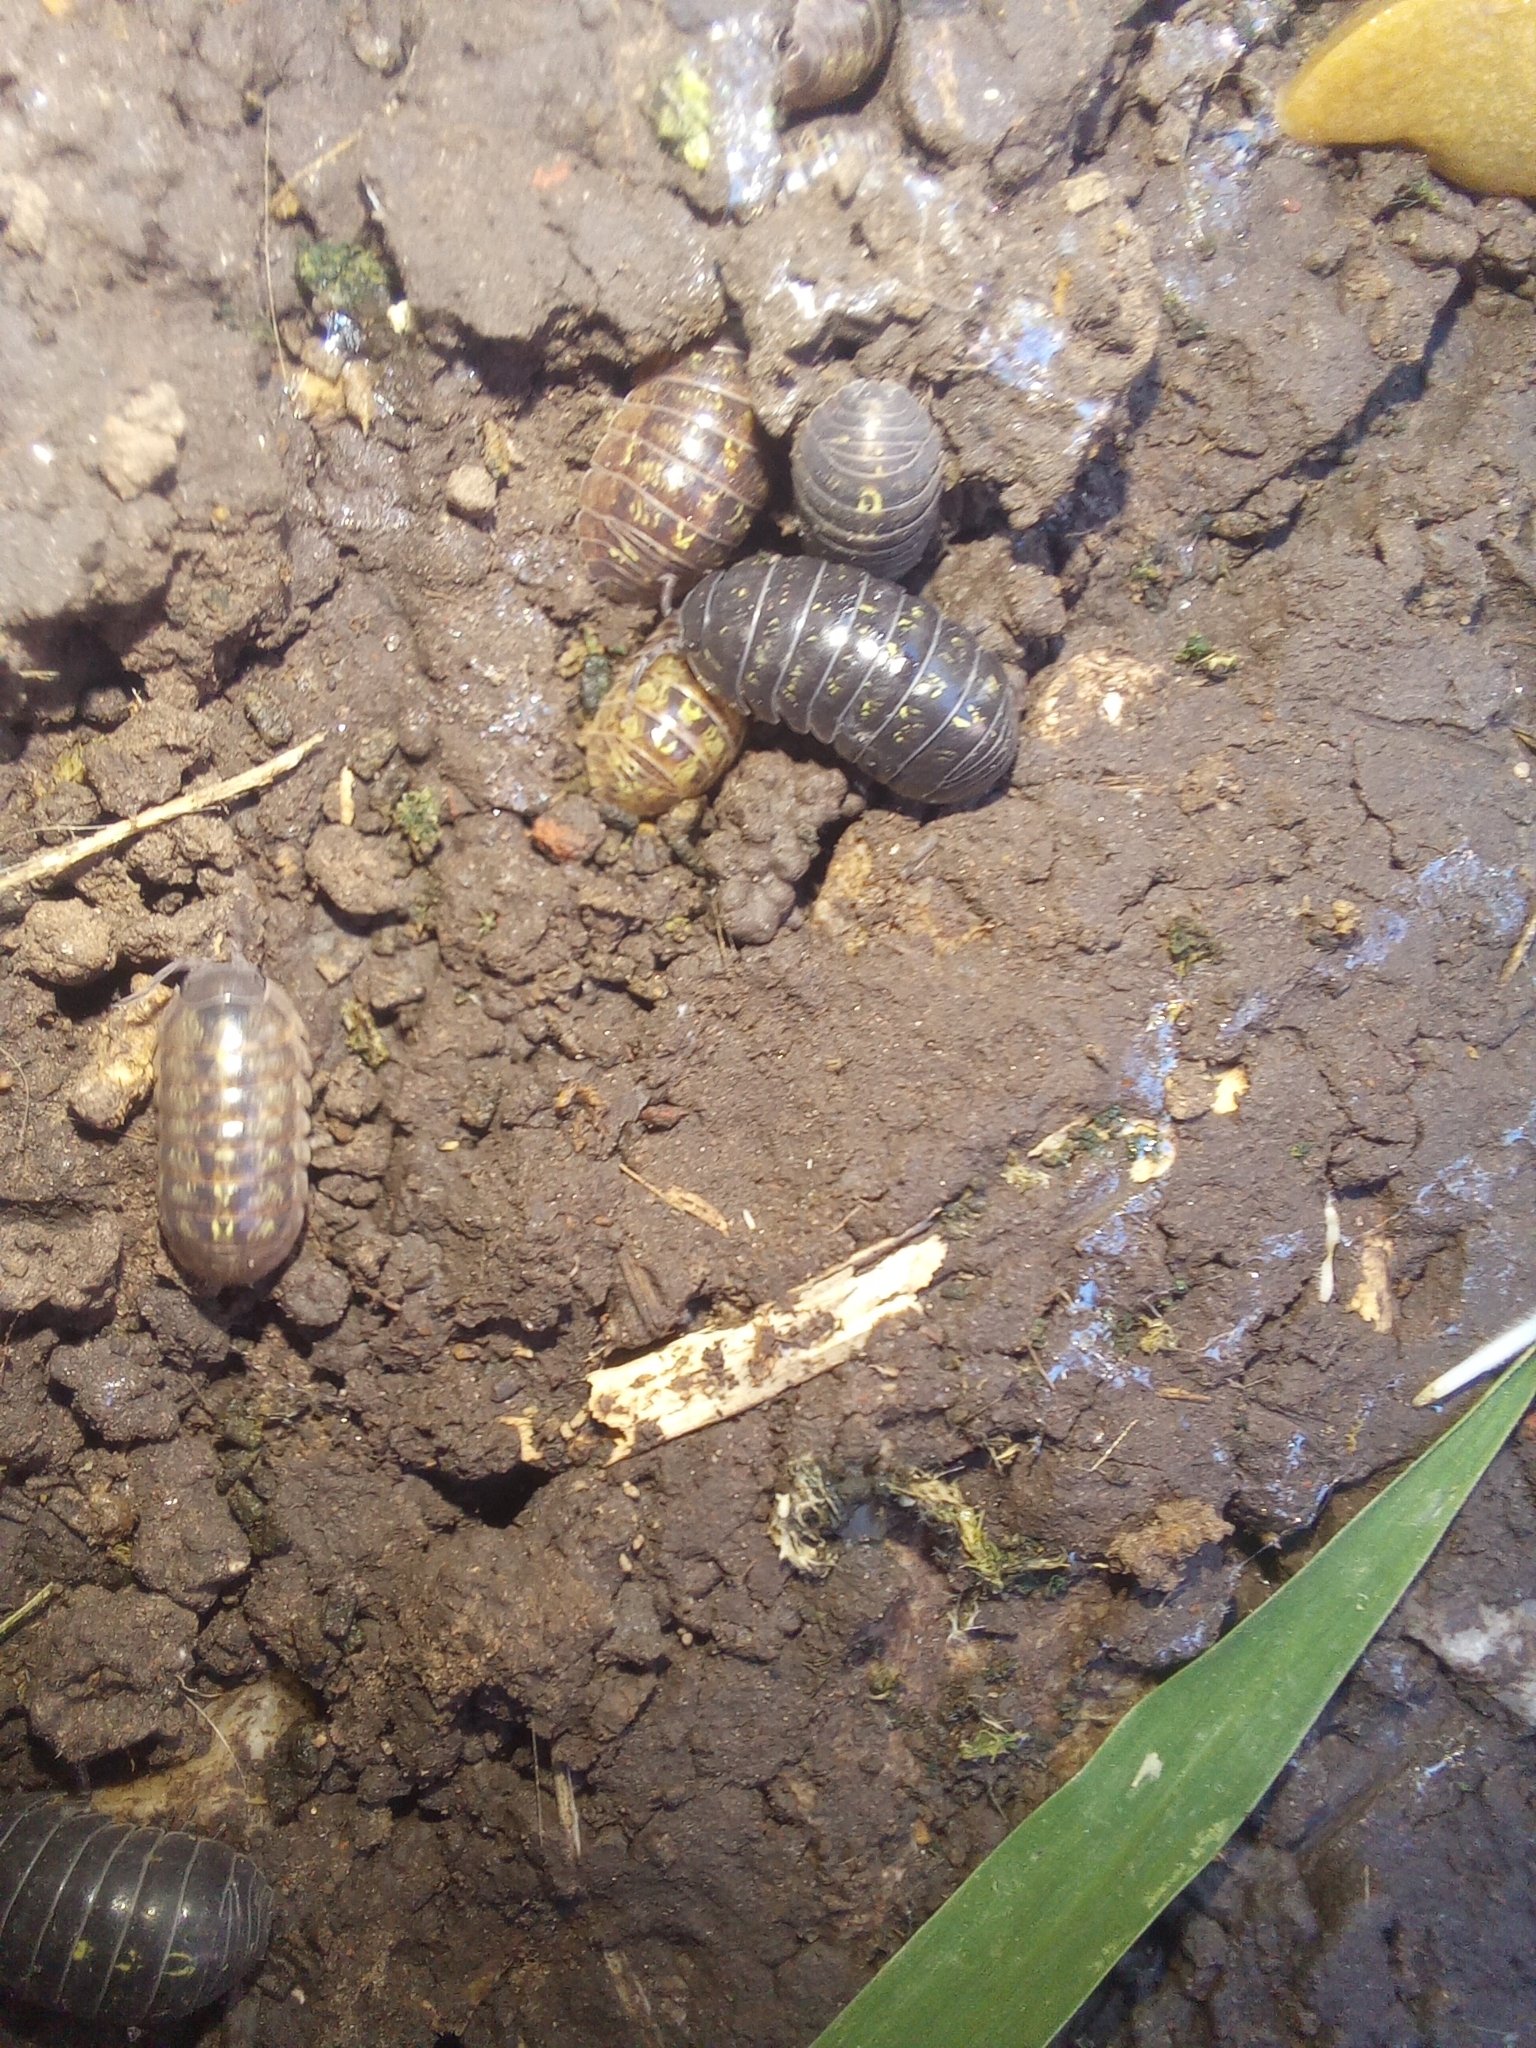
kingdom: Animalia
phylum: Arthropoda
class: Malacostraca
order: Isopoda
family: Armadillidiidae
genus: Armadillidium
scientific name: Armadillidium vulgare
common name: Common pill woodlouse
